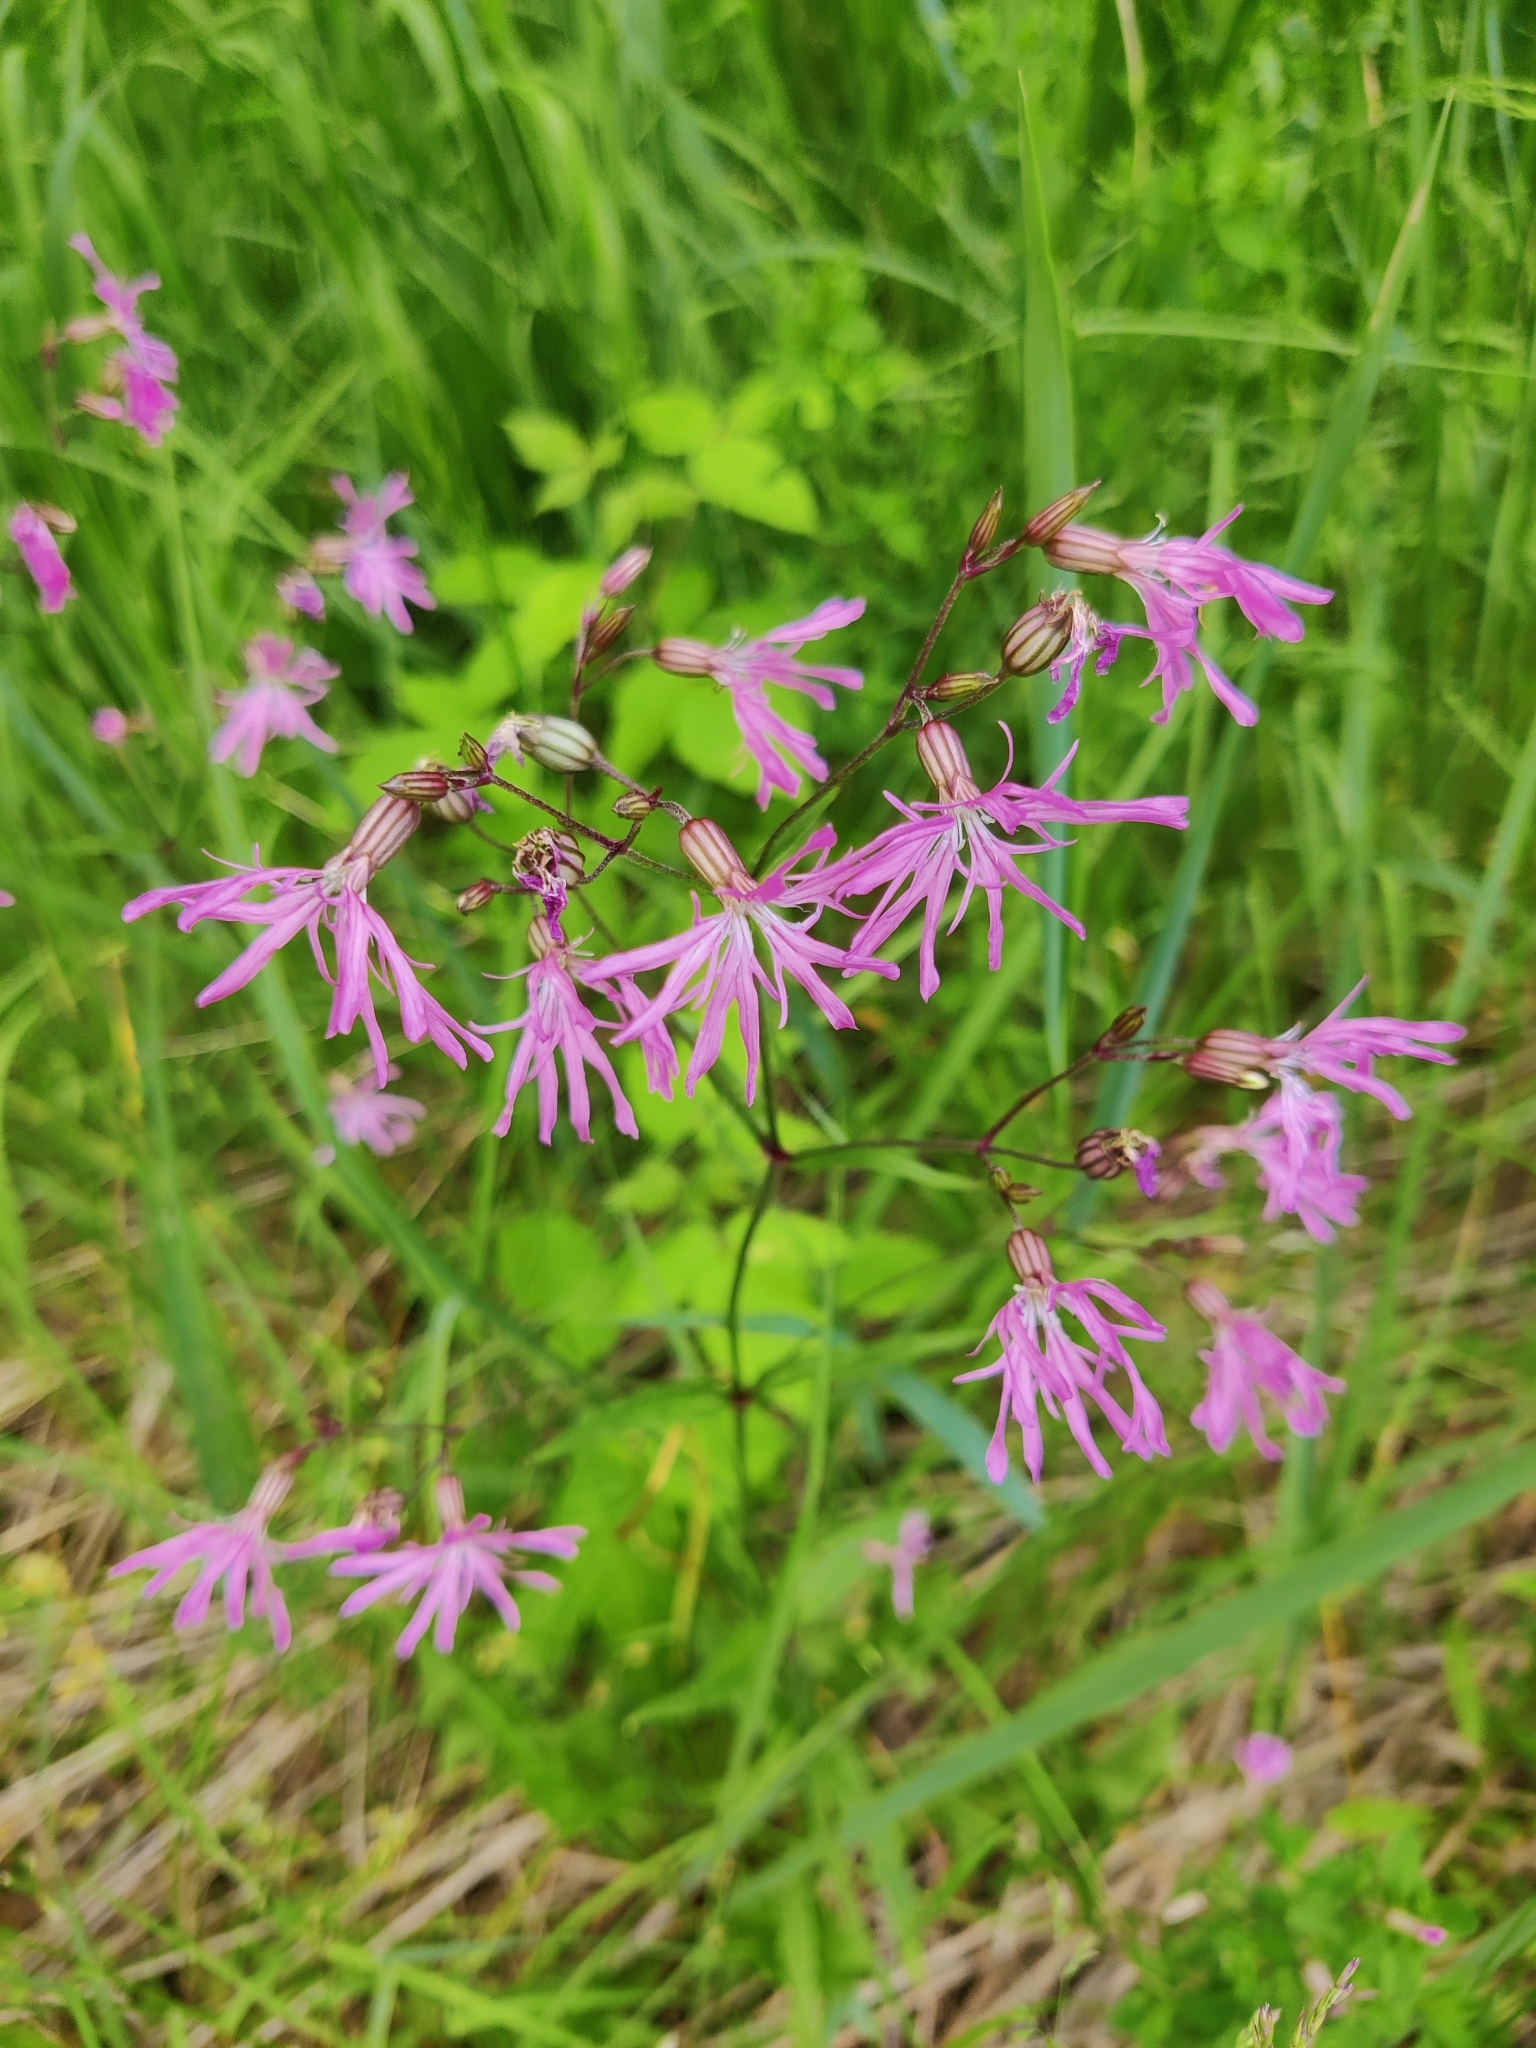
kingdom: Plantae
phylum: Tracheophyta
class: Magnoliopsida
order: Caryophyllales
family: Caryophyllaceae
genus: Silene
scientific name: Silene flos-cuculi
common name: Ragged-robin
